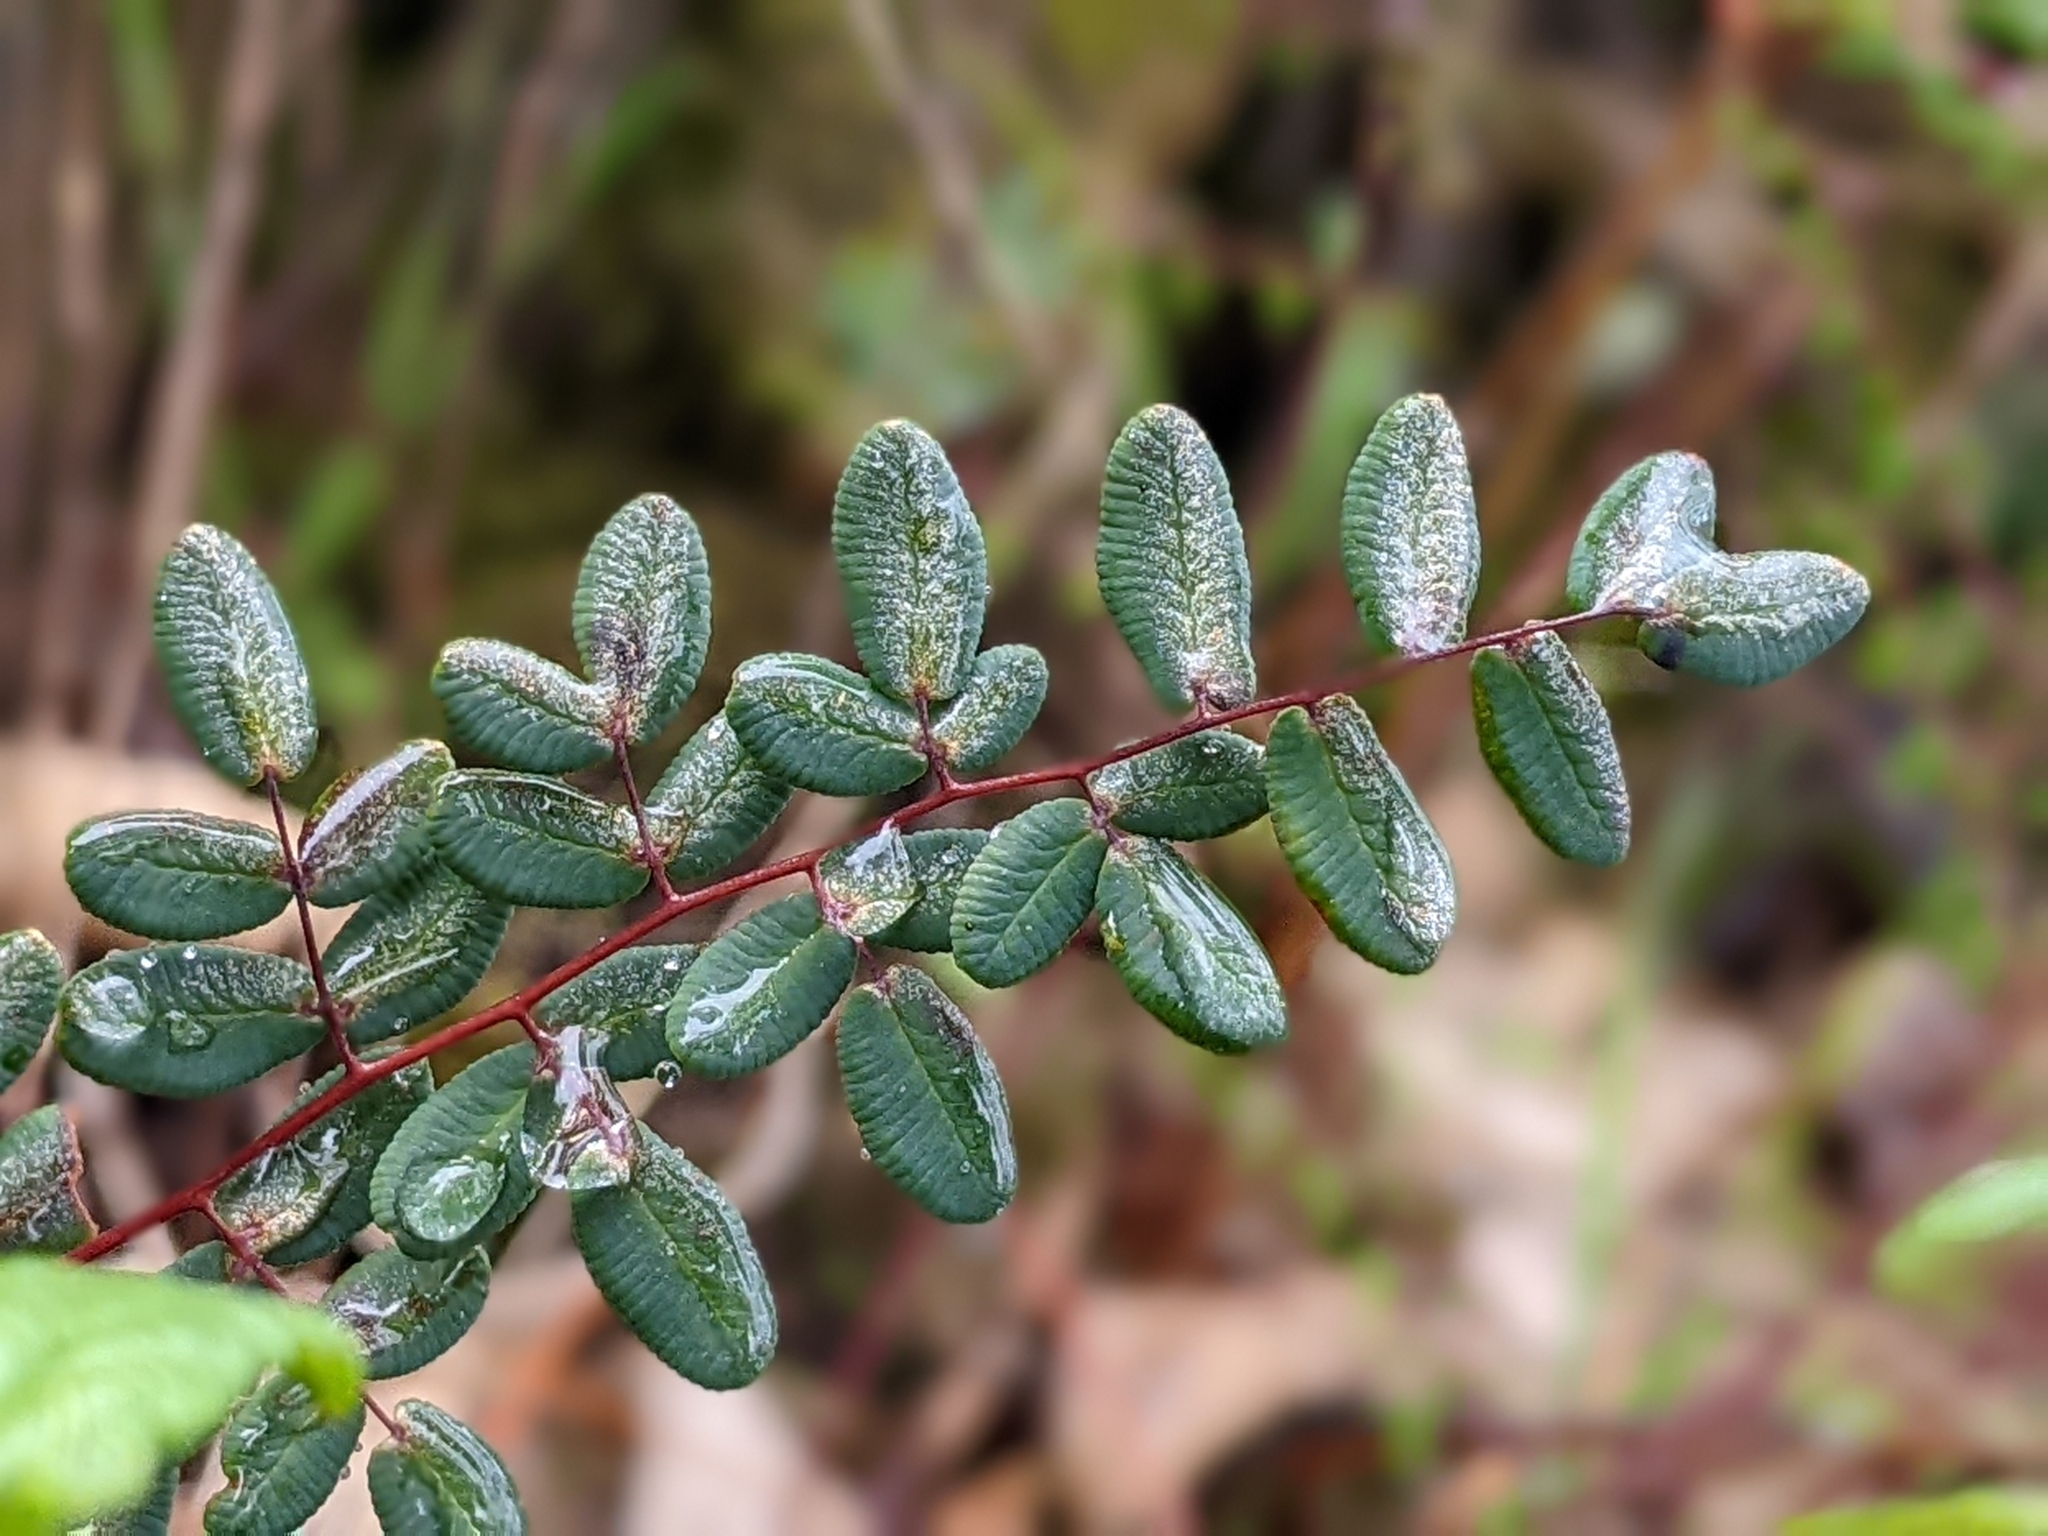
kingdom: Plantae
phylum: Tracheophyta
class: Polypodiopsida
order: Polypodiales
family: Pteridaceae
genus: Pellaea
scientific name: Pellaea andromedifolia
